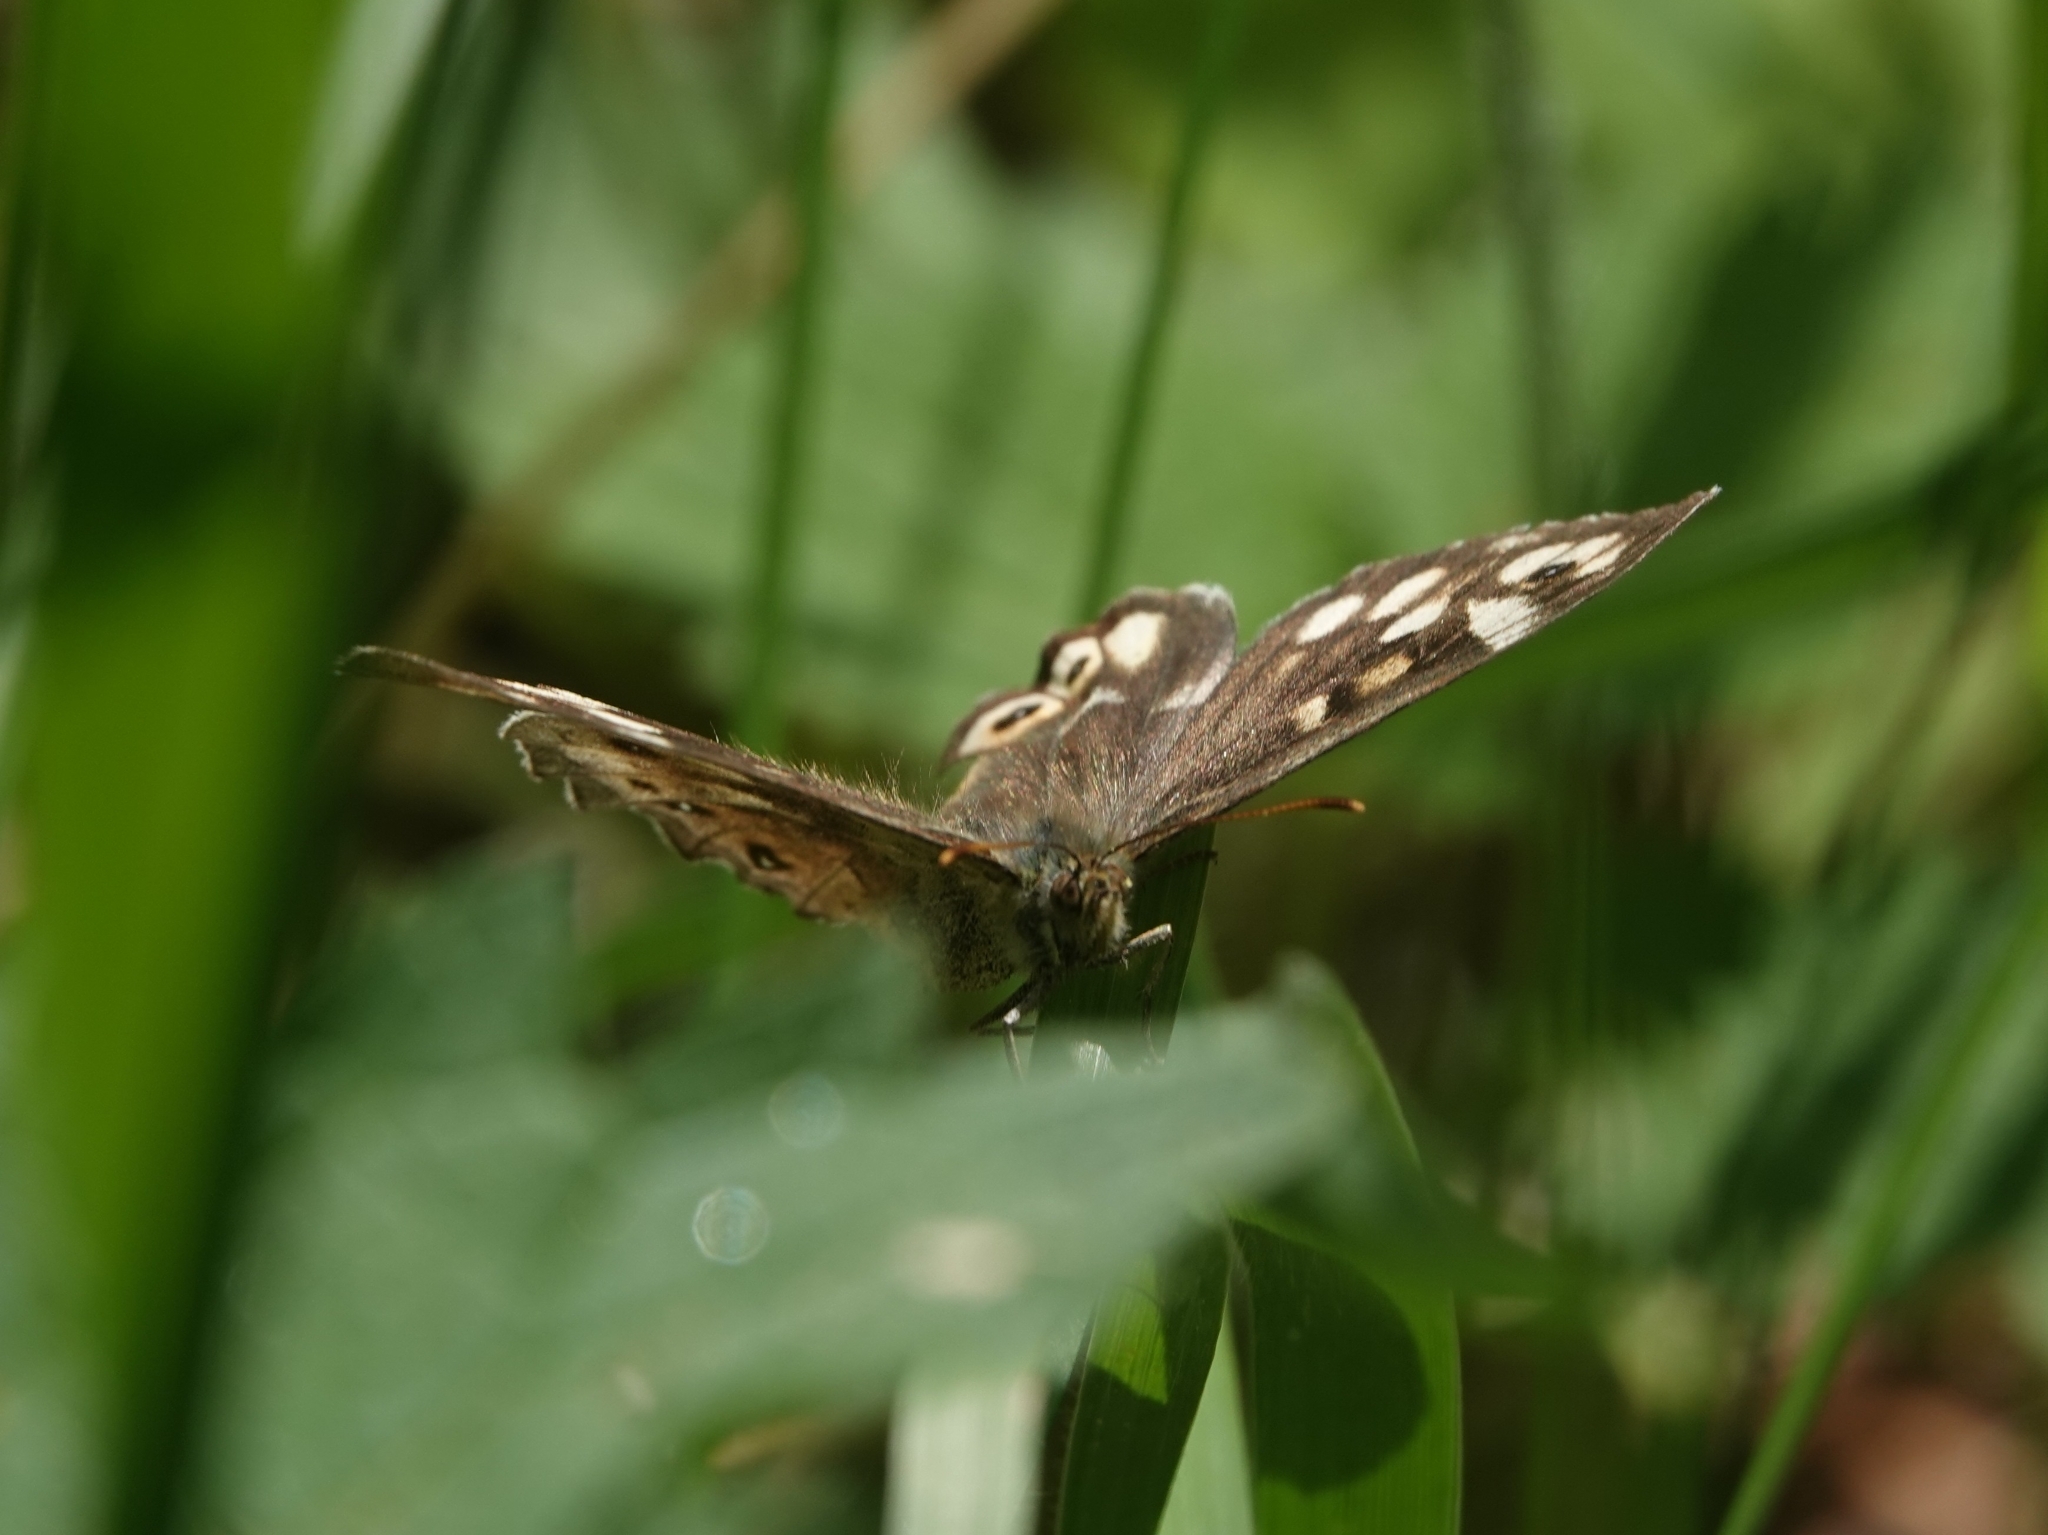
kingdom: Animalia
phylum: Arthropoda
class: Insecta
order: Lepidoptera
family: Nymphalidae
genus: Pararge
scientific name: Pararge aegeria
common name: Speckled wood
